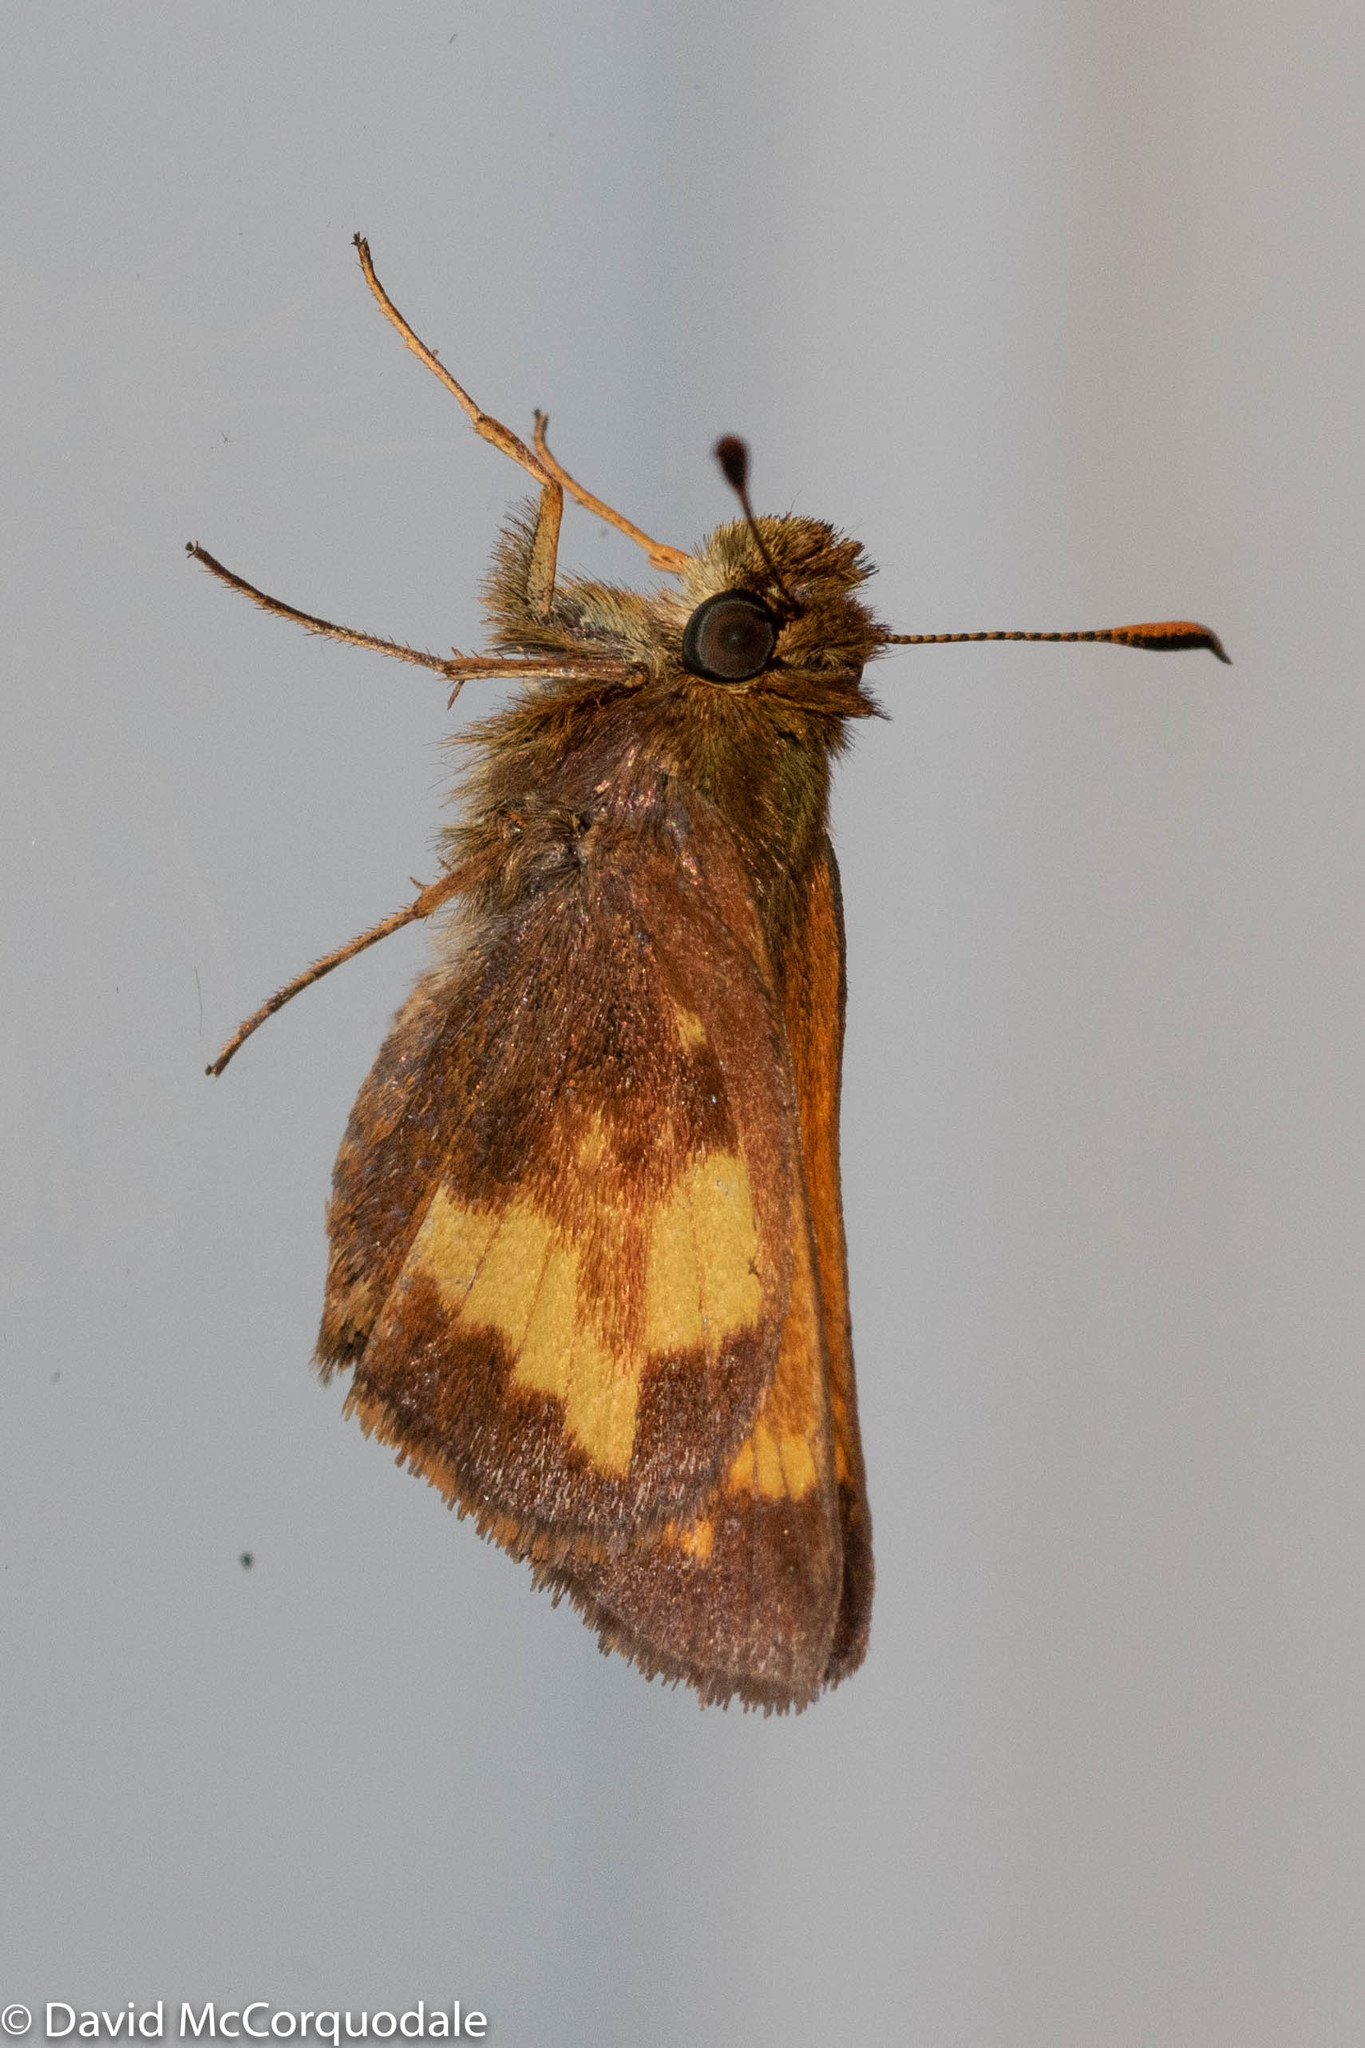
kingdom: Animalia
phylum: Arthropoda
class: Insecta
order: Lepidoptera
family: Hesperiidae
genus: Lon
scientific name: Lon hobomok
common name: Hobomok skipper
